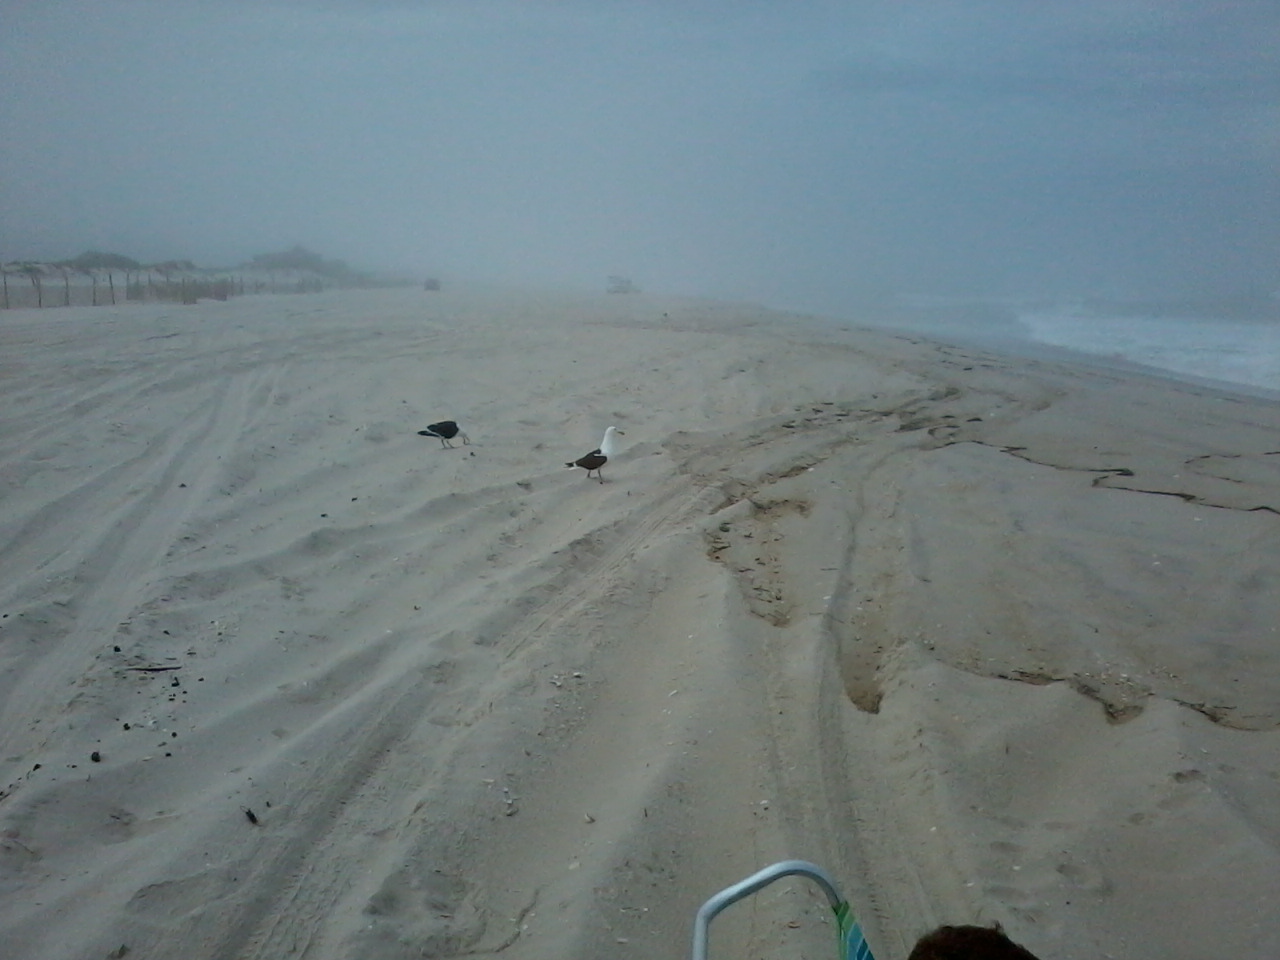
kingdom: Animalia
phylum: Chordata
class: Aves
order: Charadriiformes
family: Laridae
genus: Larus
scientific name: Larus marinus
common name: Great black-backed gull
